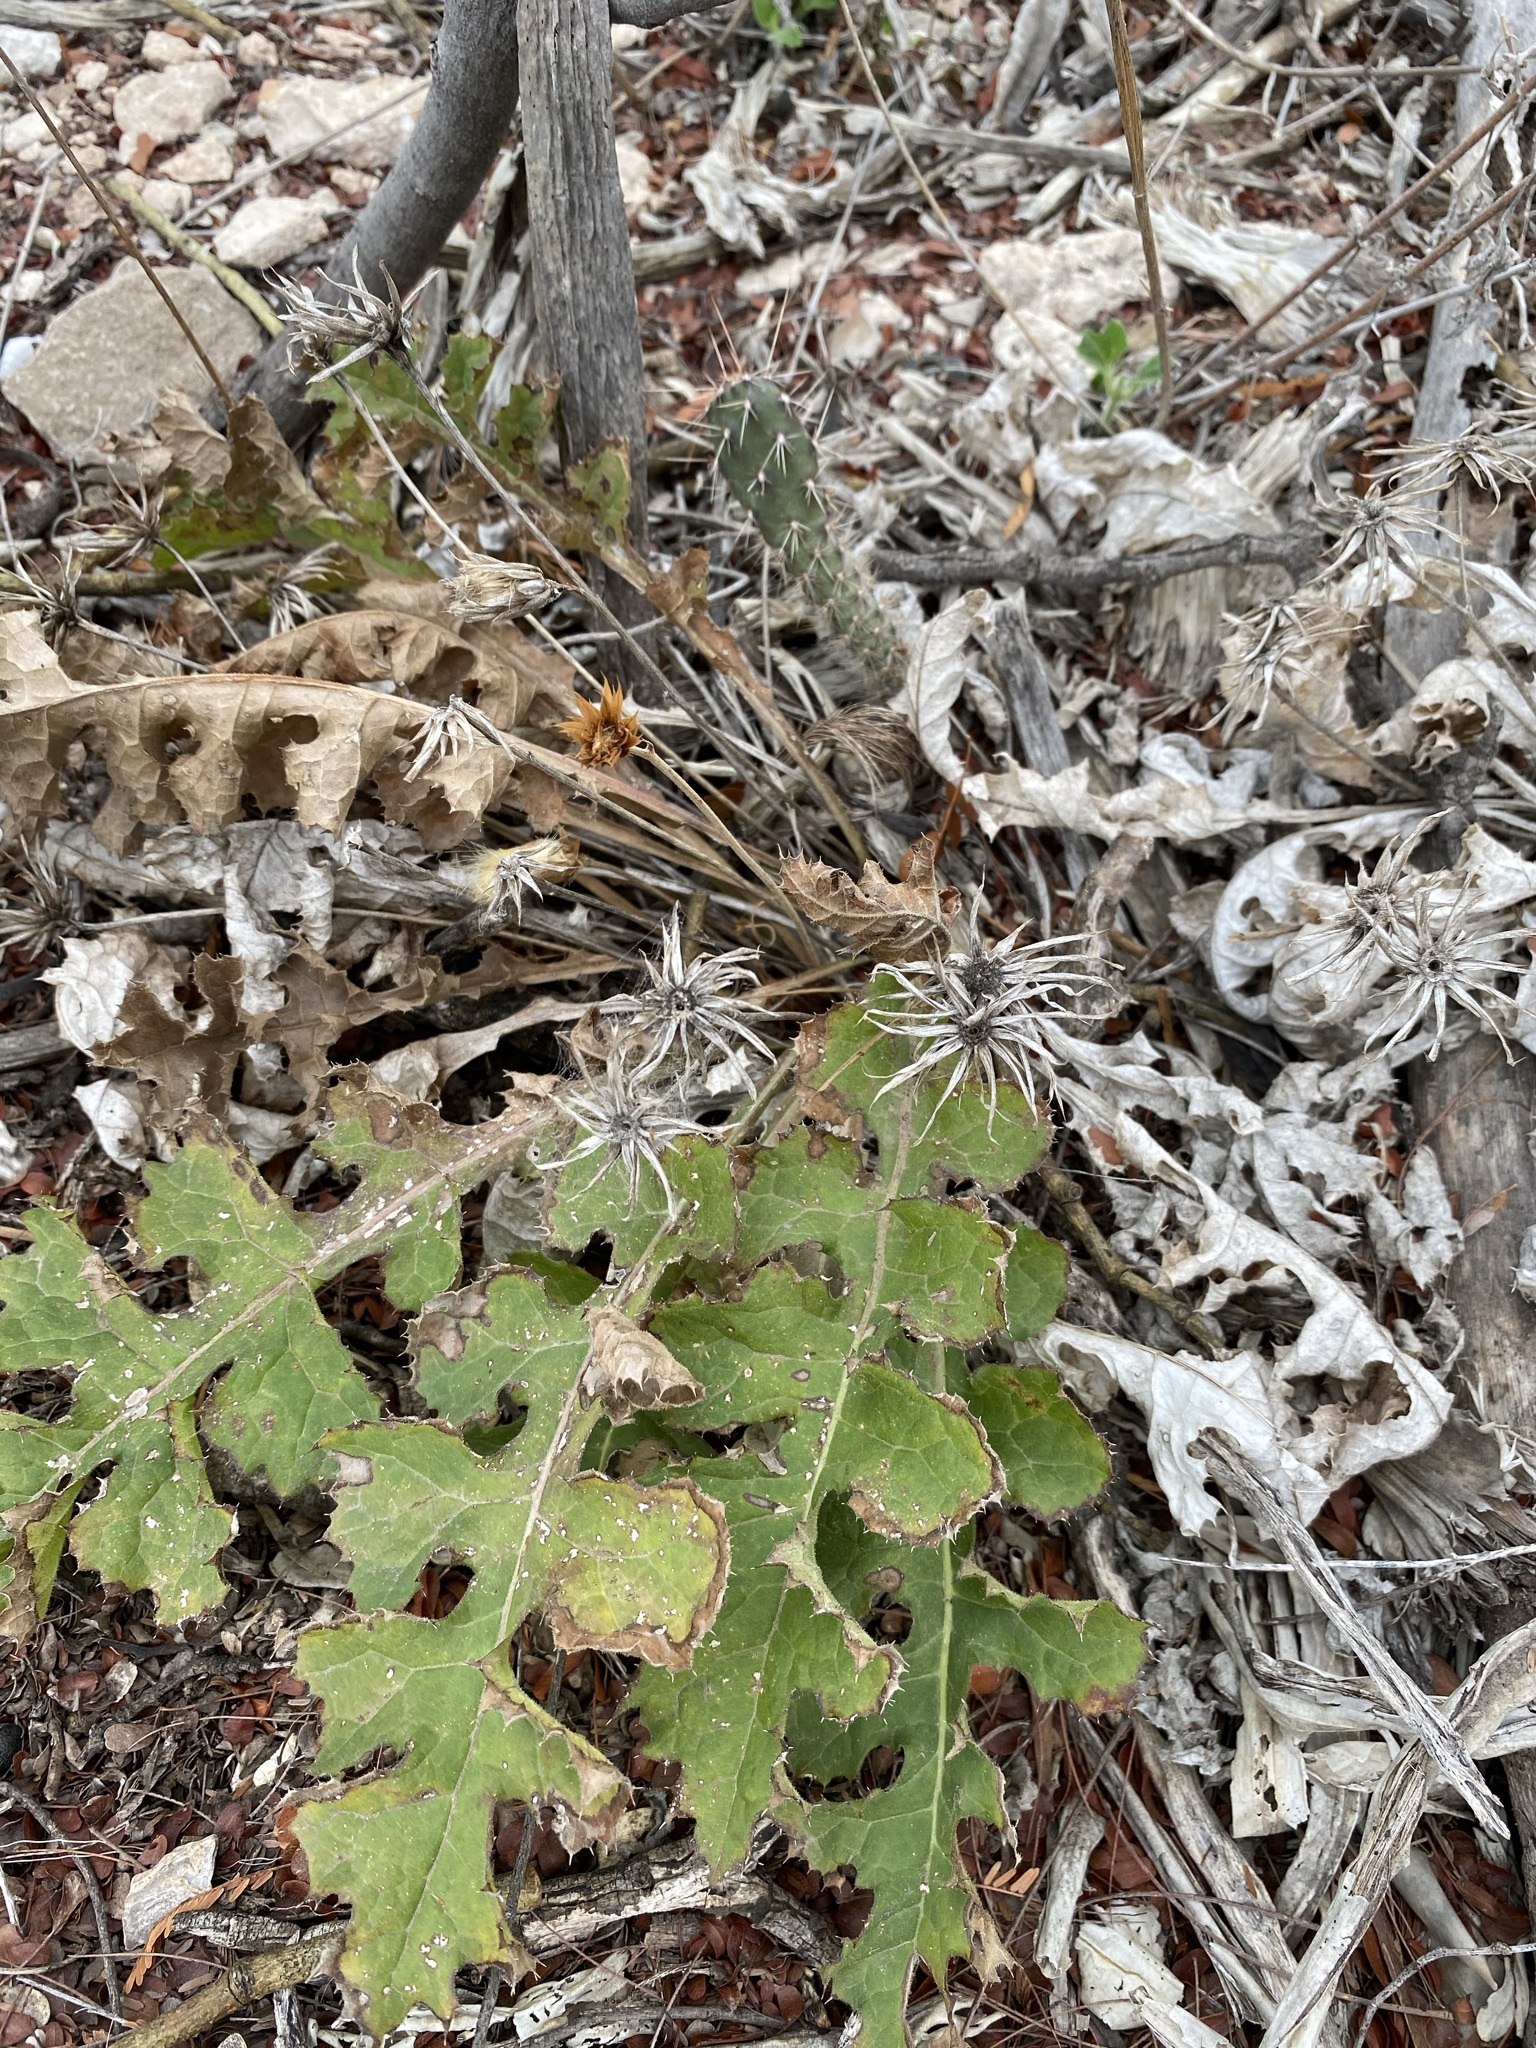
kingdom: Plantae
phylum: Tracheophyta
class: Magnoliopsida
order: Asterales
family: Asteraceae
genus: Acourtia
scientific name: Acourtia runcinata
